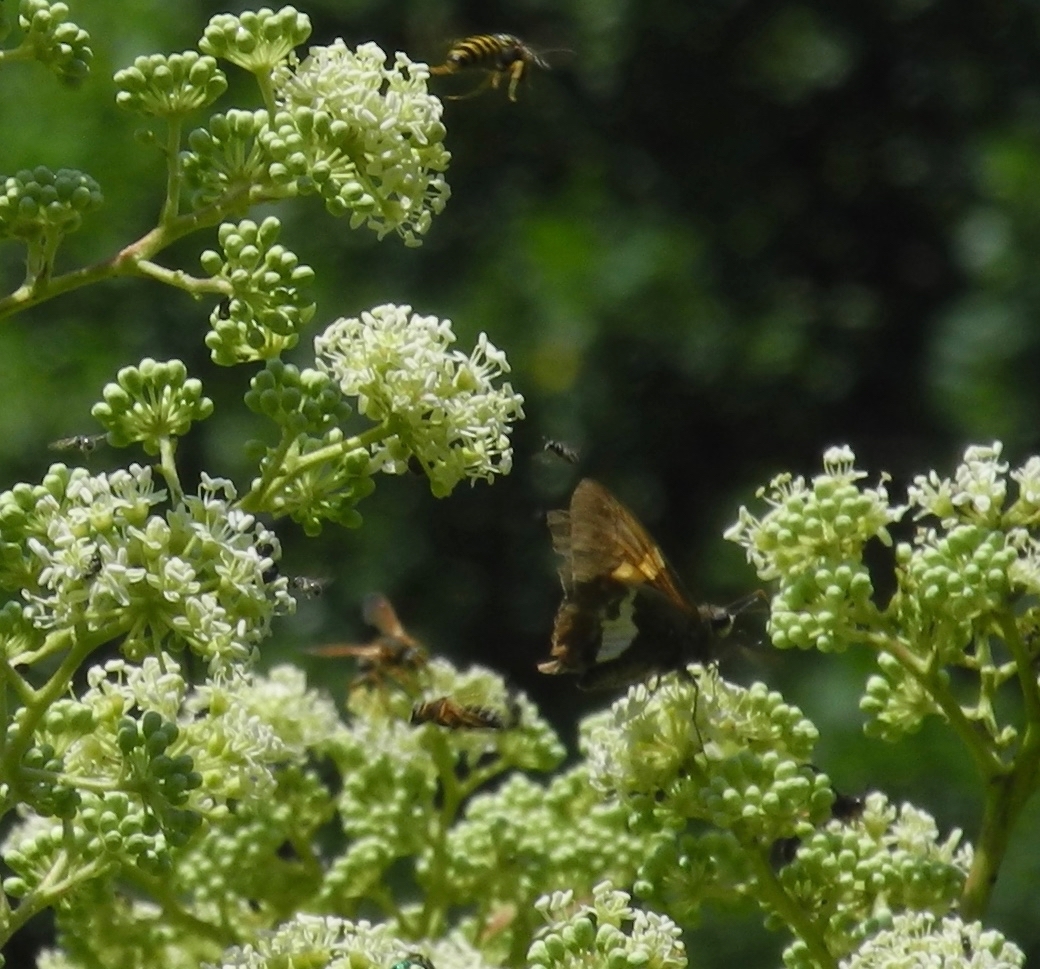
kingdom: Plantae
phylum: Tracheophyta
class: Magnoliopsida
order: Apiales
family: Araliaceae
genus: Aralia
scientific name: Aralia spinosa
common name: Hercules'-club
